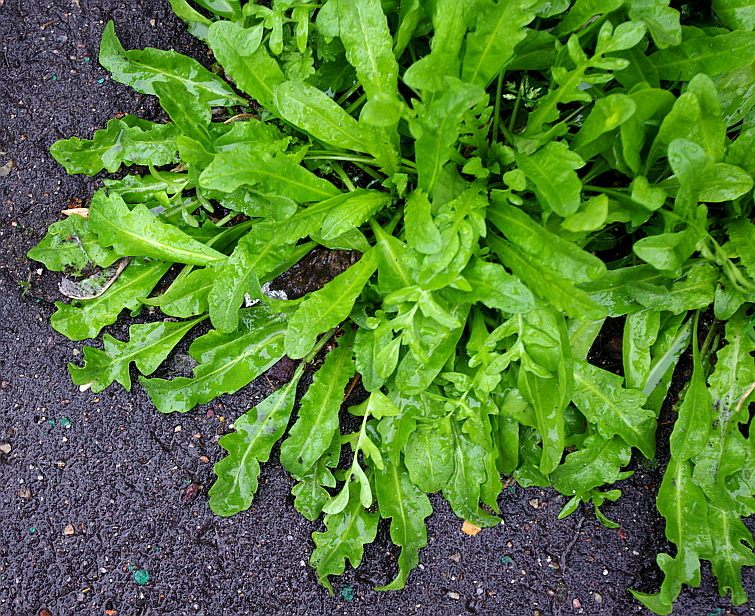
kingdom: Plantae
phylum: Tracheophyta
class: Magnoliopsida
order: Brassicales
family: Brassicaceae
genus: Capsella
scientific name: Capsella bursa-pastoris
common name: Shepherd's purse
